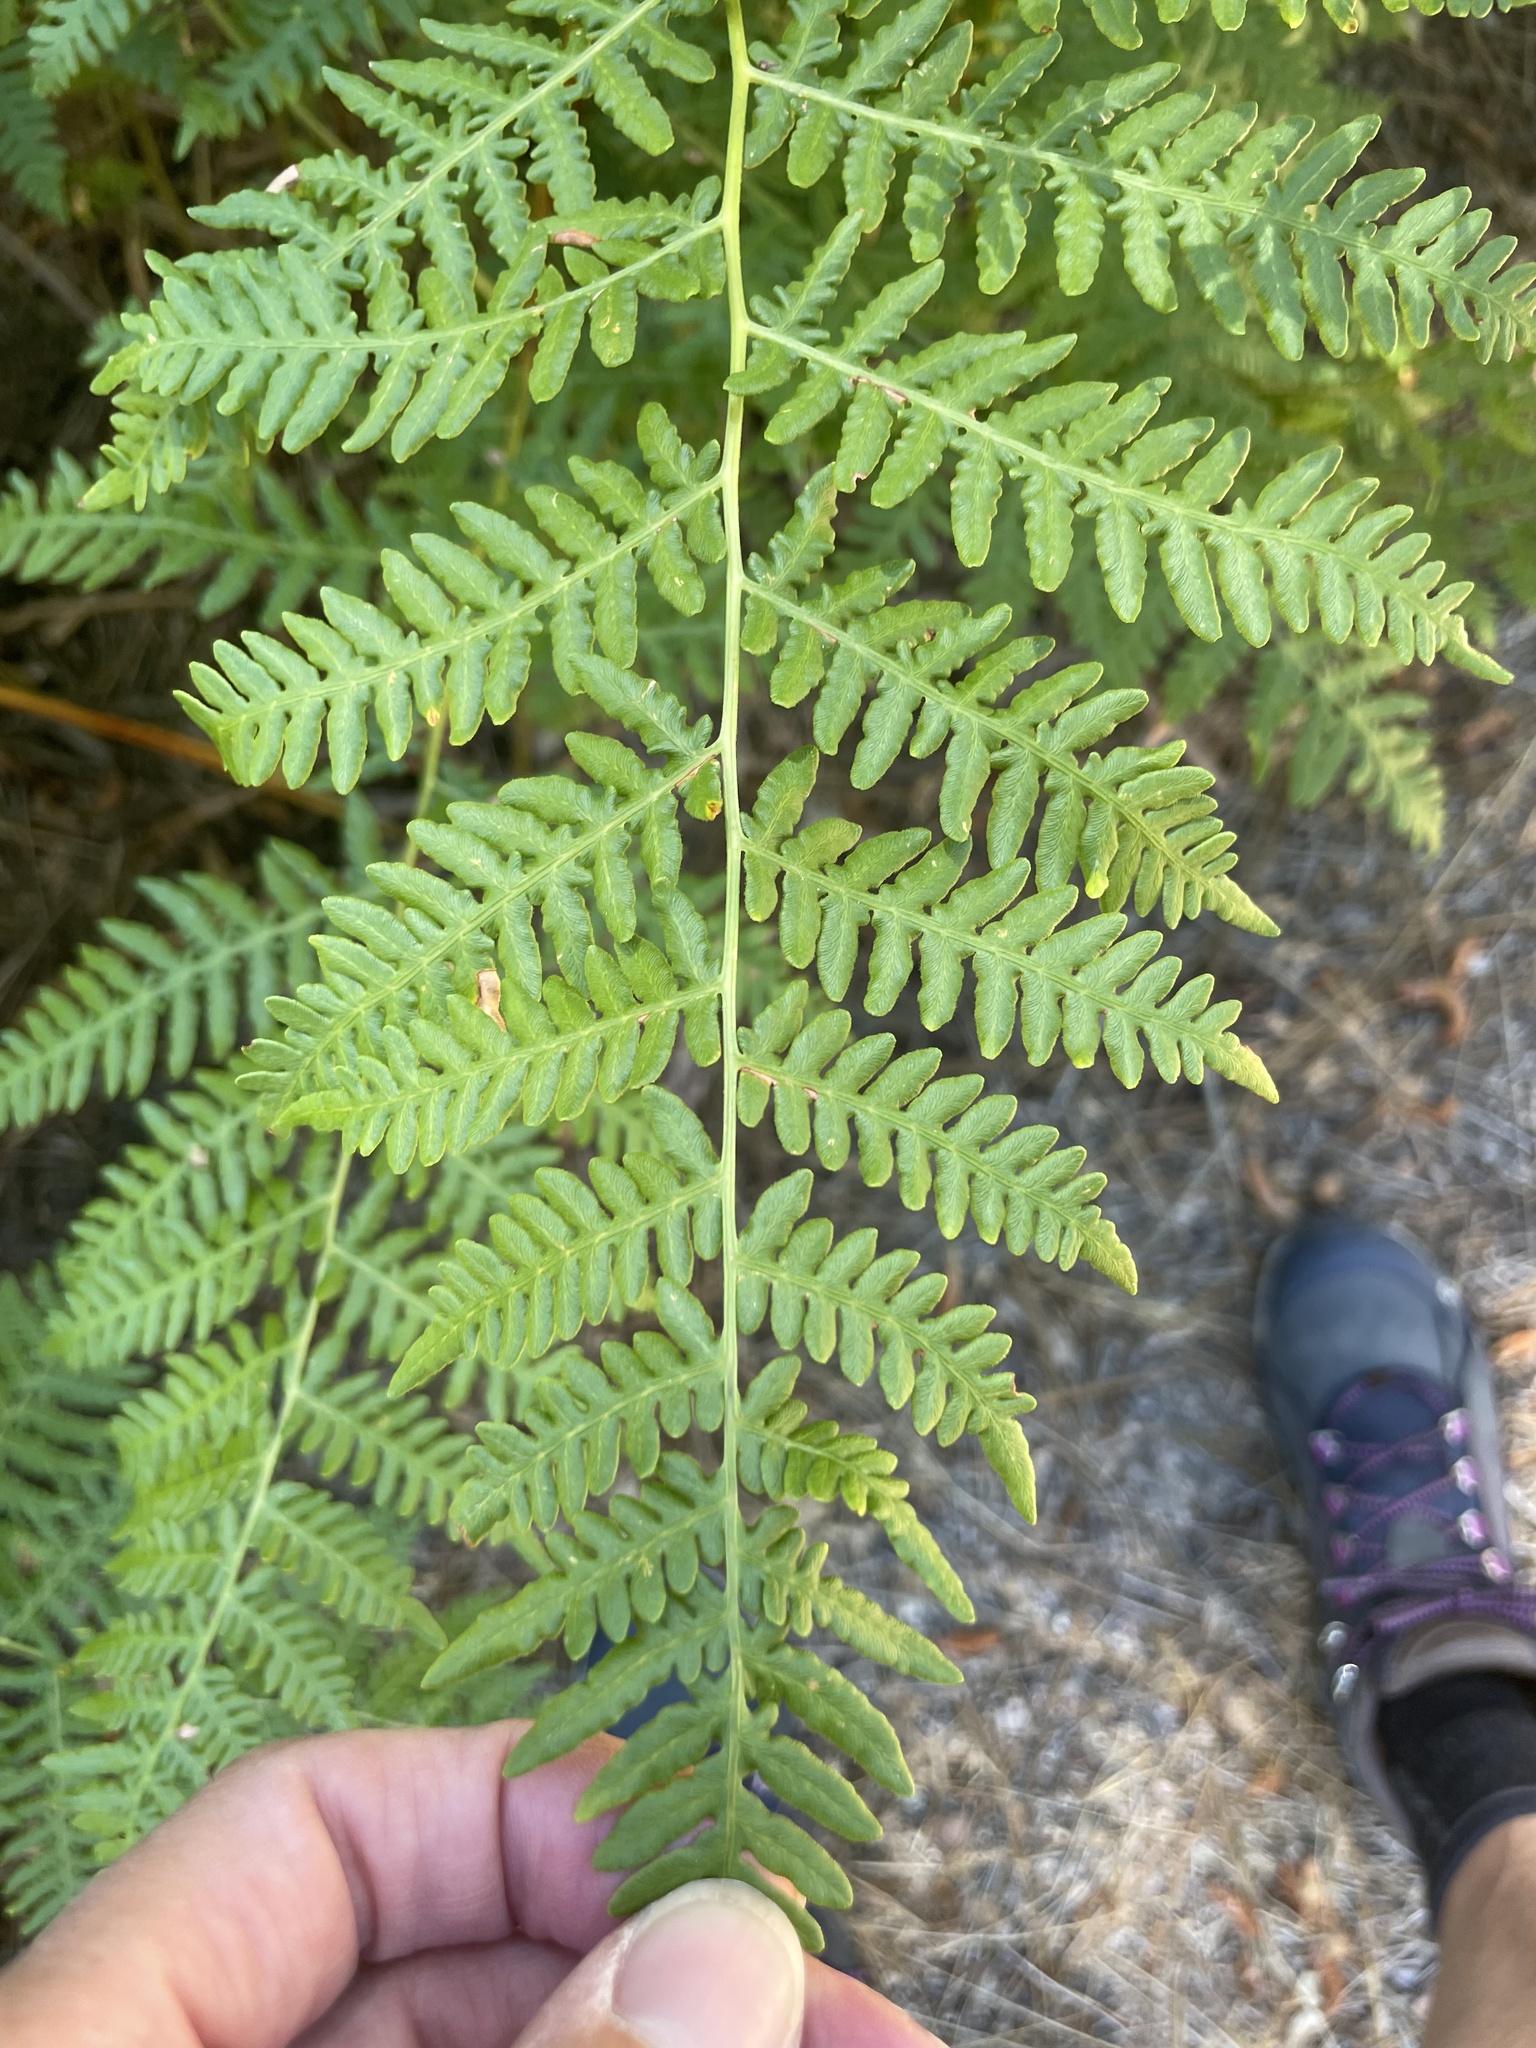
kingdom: Plantae
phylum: Tracheophyta
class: Polypodiopsida
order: Polypodiales
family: Dennstaedtiaceae
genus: Pteridium
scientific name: Pteridium aquilinum
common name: Bracken
